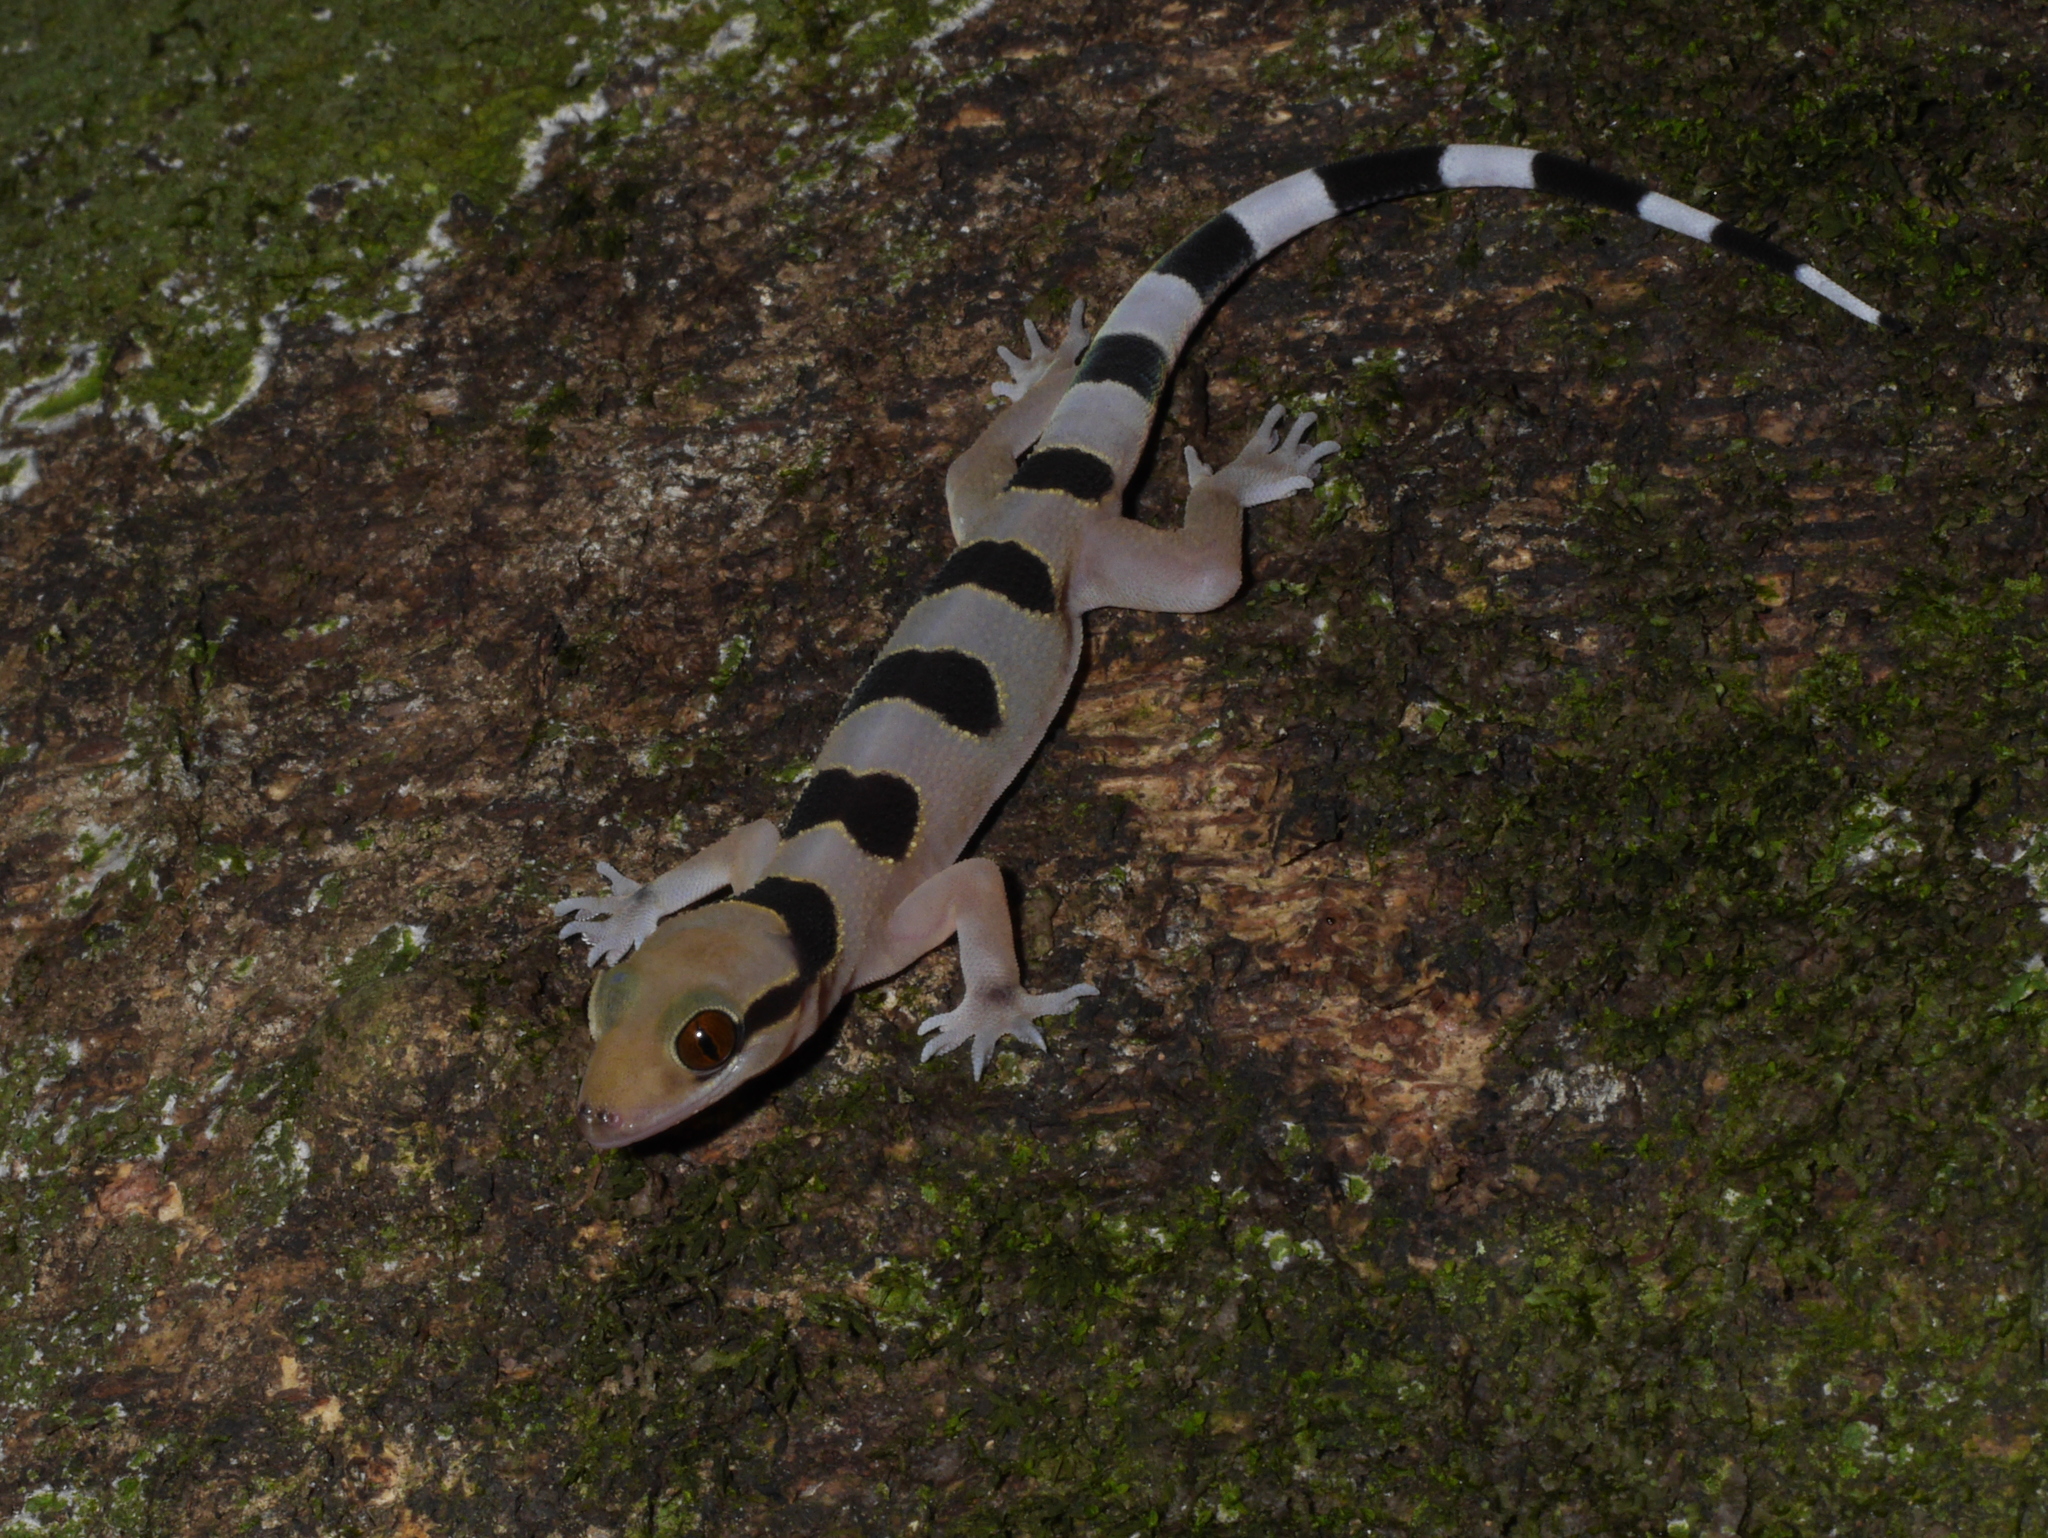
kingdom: Animalia
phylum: Chordata
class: Squamata
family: Gekkonidae
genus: Hemidactylus
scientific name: Hemidactylus coalescens
